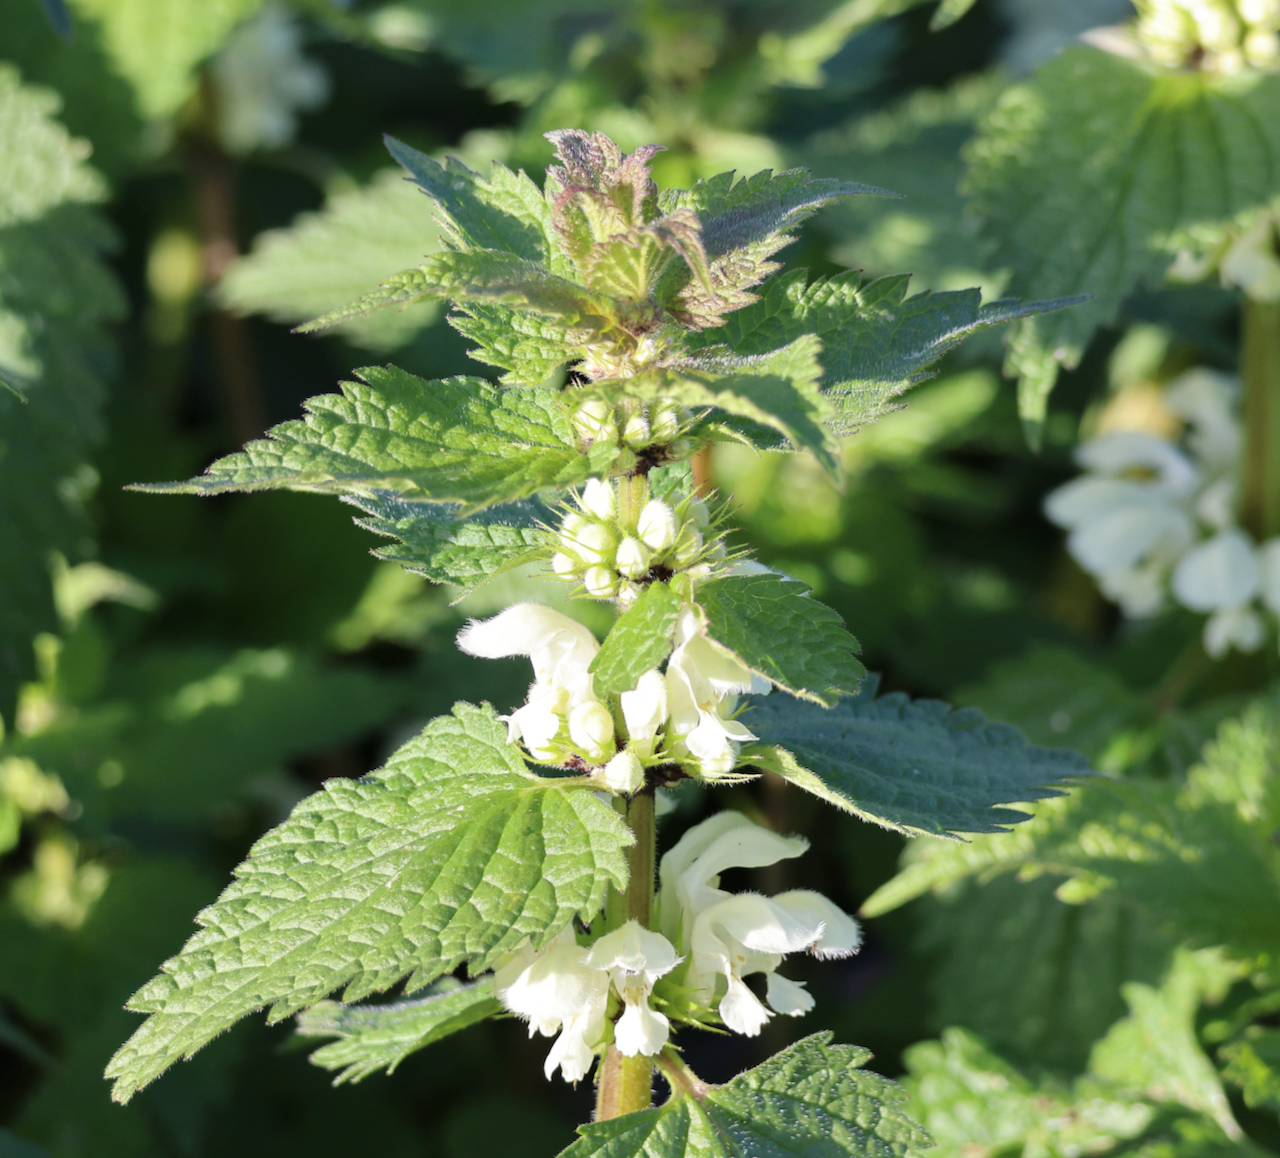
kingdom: Plantae
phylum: Tracheophyta
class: Magnoliopsida
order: Lamiales
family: Lamiaceae
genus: Lamium
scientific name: Lamium album
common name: White dead-nettle
